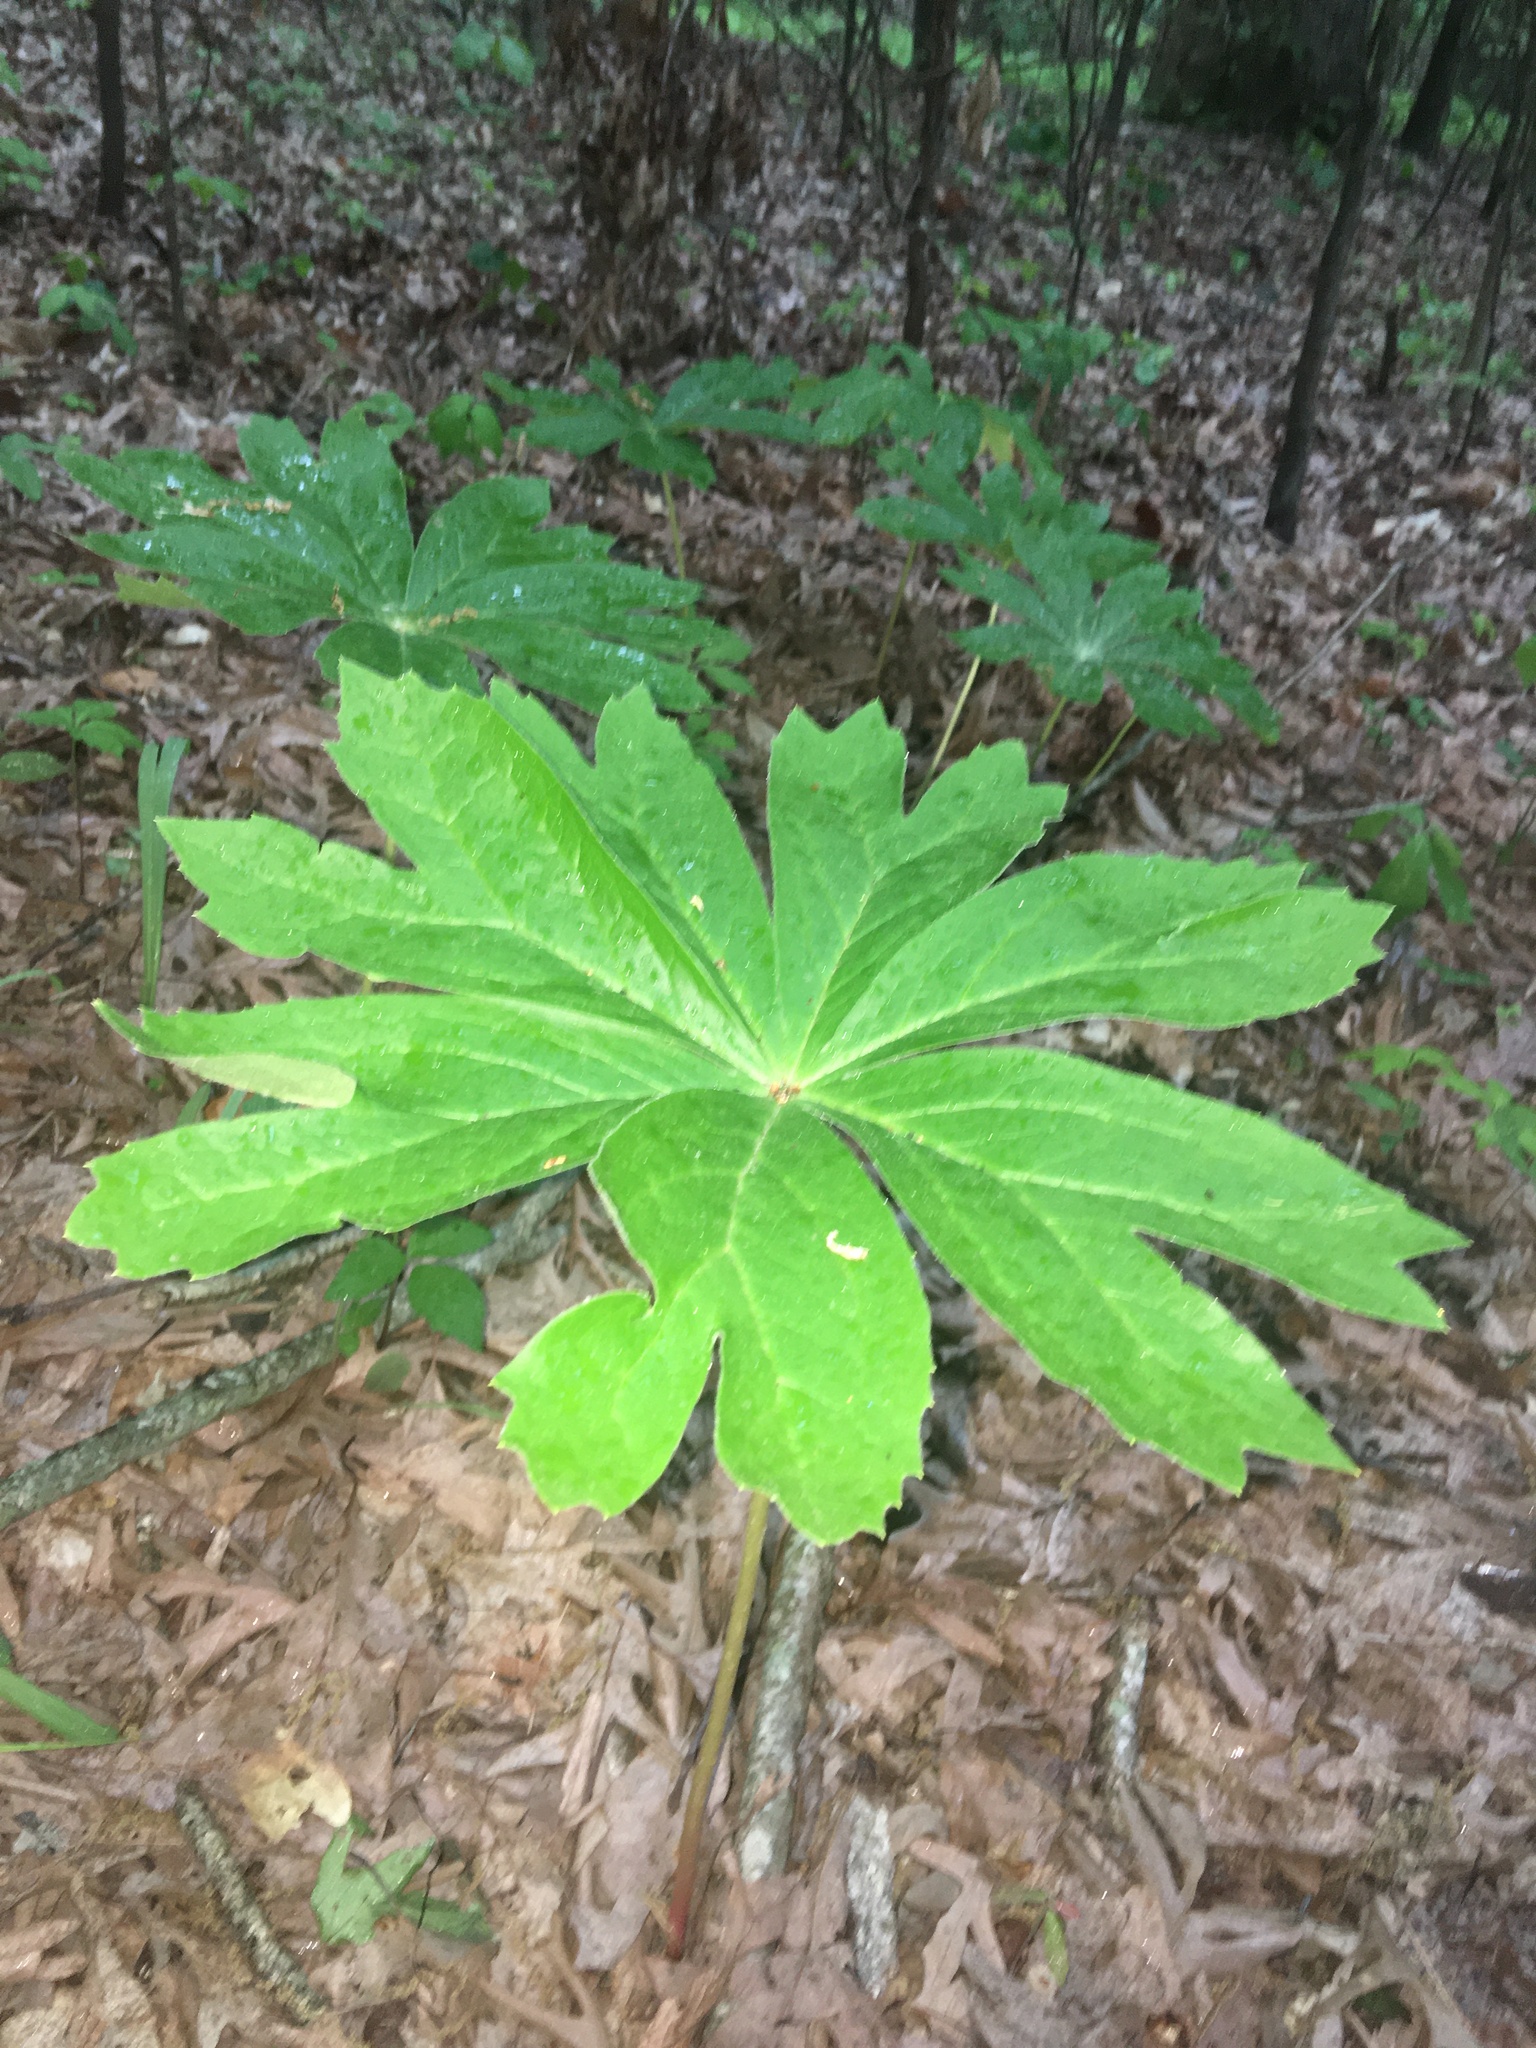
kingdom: Plantae
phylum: Tracheophyta
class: Magnoliopsida
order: Ranunculales
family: Berberidaceae
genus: Podophyllum
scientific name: Podophyllum peltatum
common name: Wild mandrake
